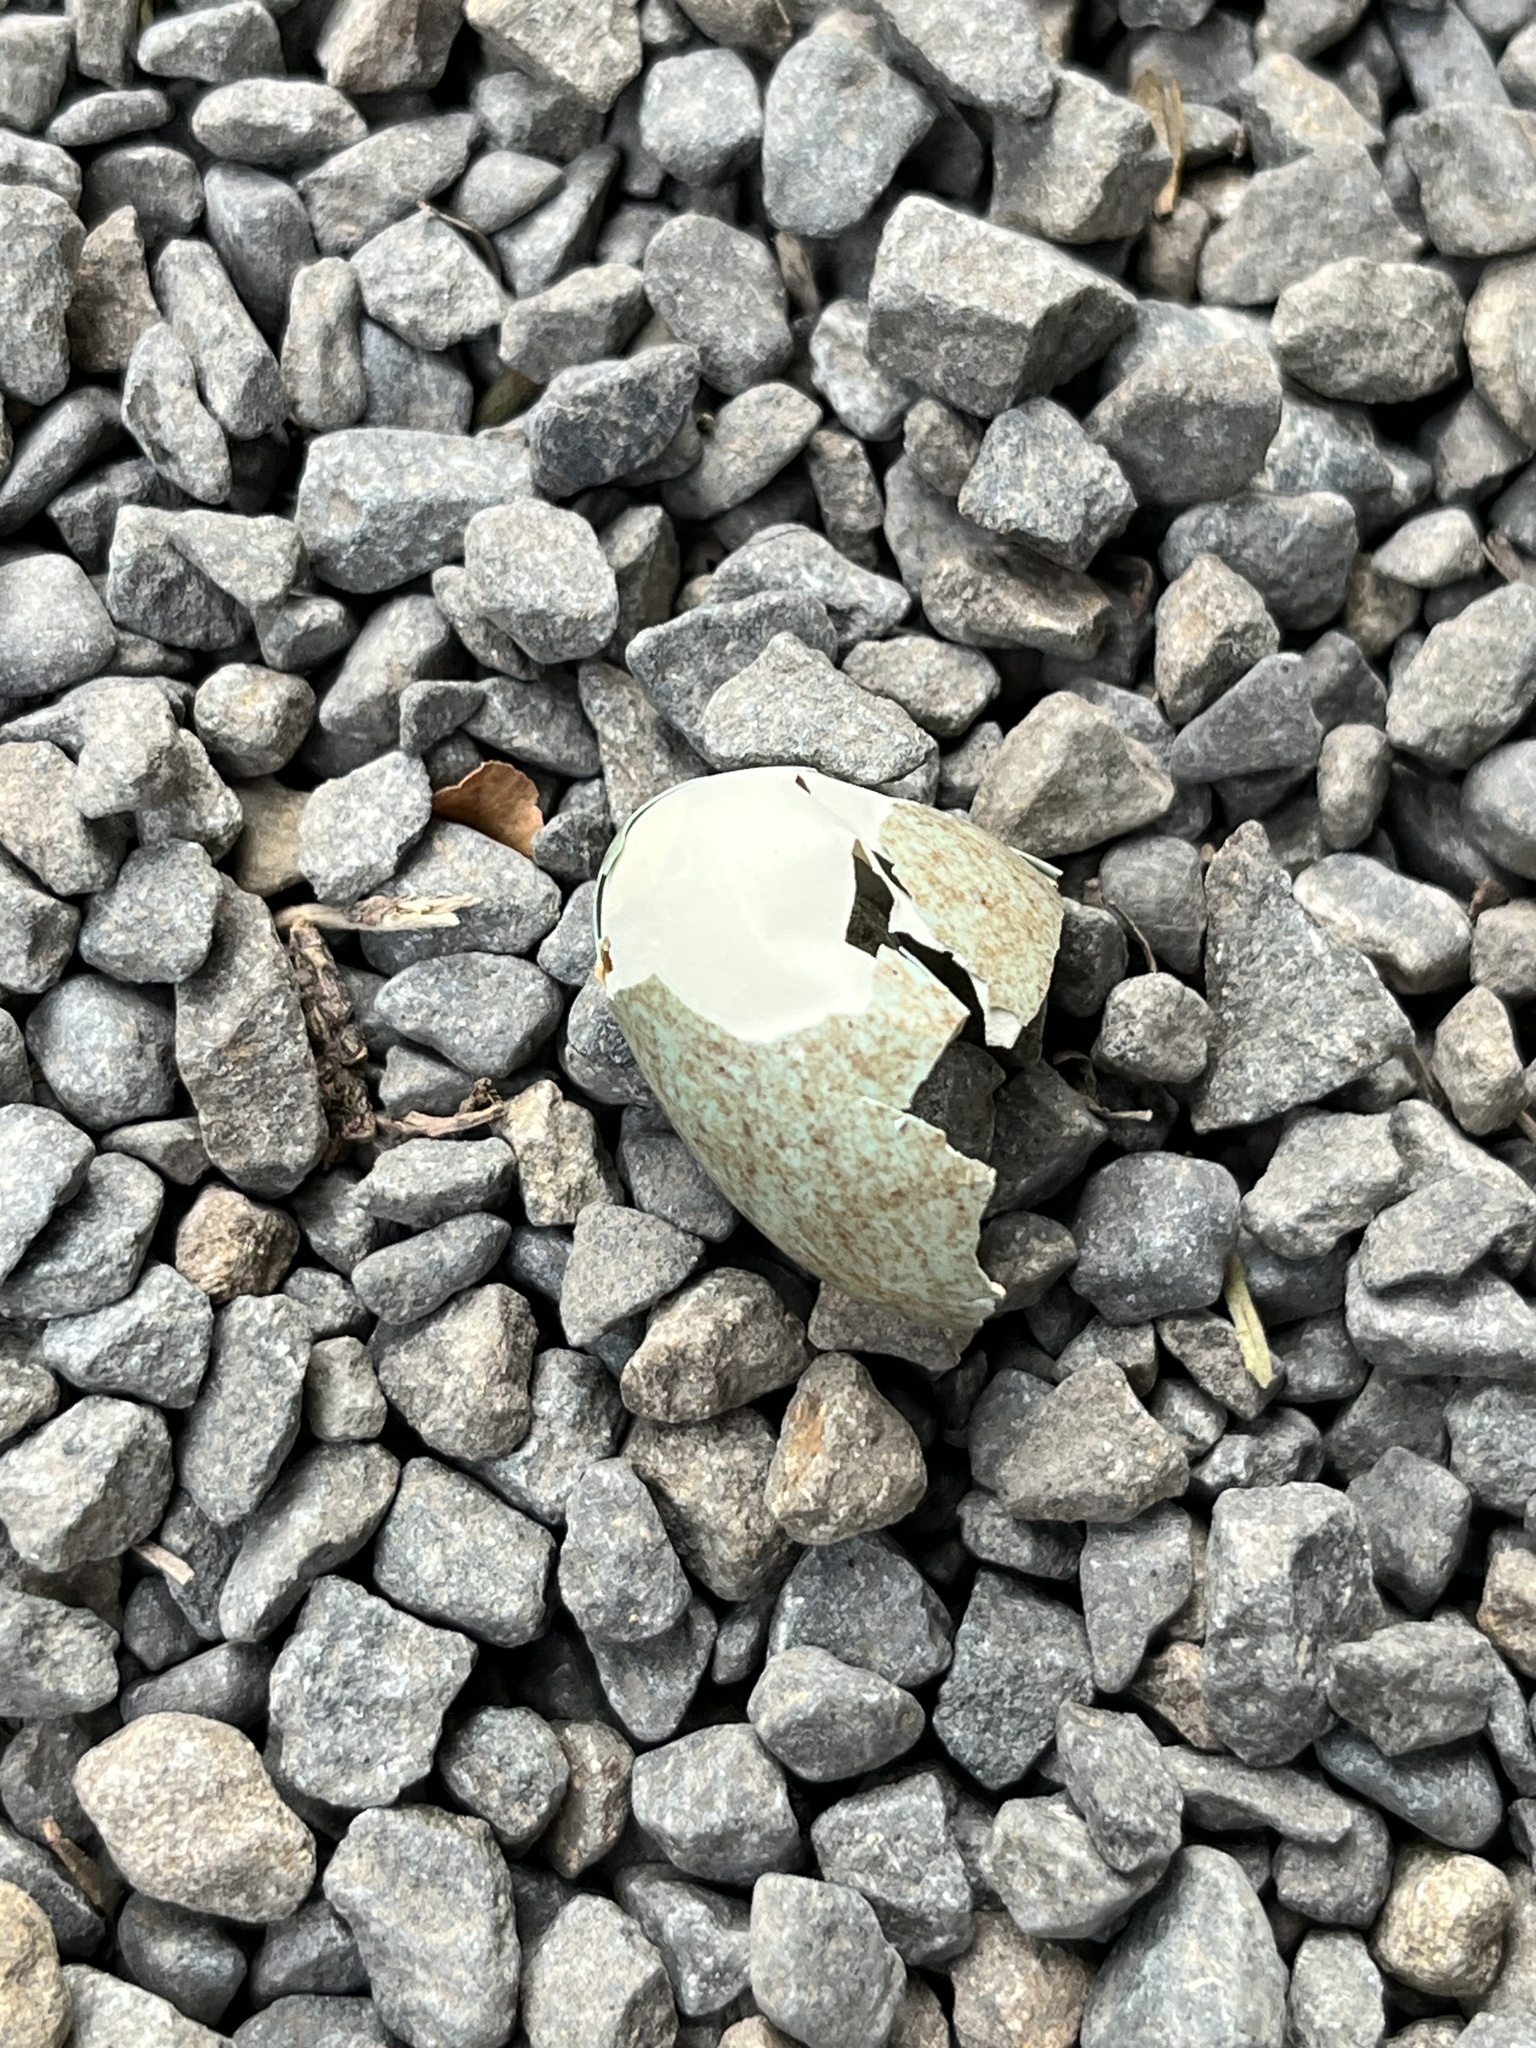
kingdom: Animalia
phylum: Chordata
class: Aves
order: Passeriformes
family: Turdidae
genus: Turdus
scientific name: Turdus merula
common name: Common blackbird
